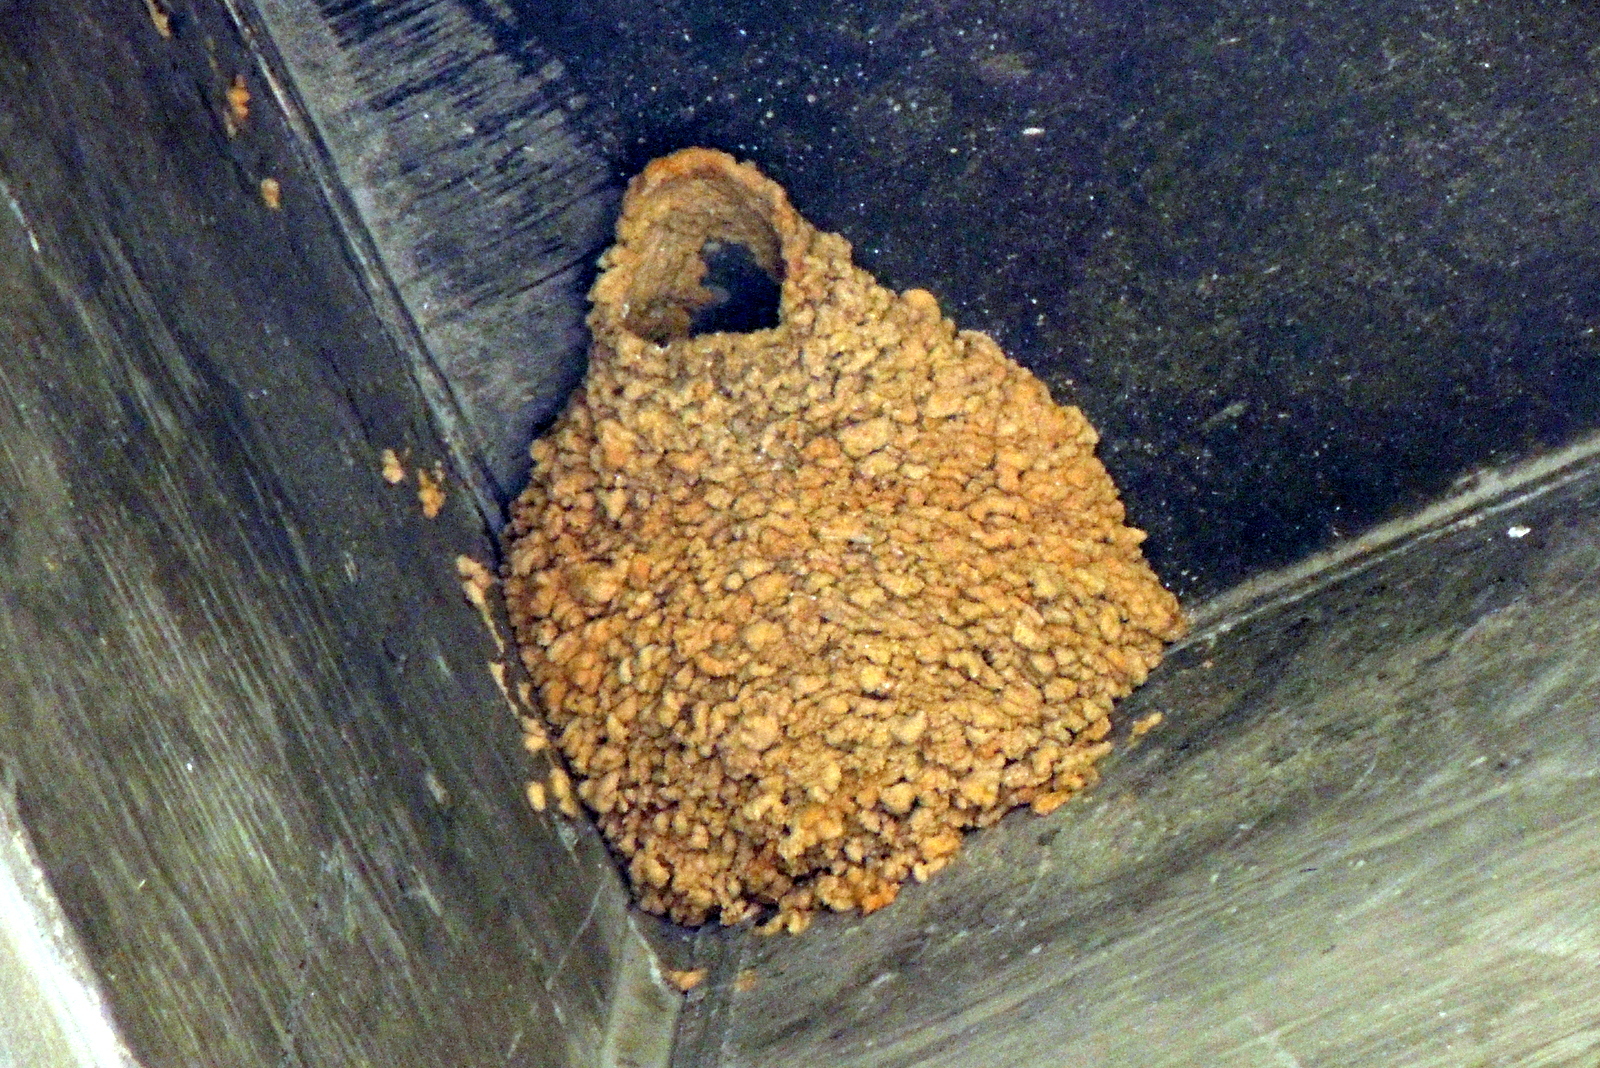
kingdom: Animalia
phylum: Chordata
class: Aves
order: Passeriformes
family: Hirundinidae
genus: Petrochelidon
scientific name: Petrochelidon pyrrhonota
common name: American cliff swallow
